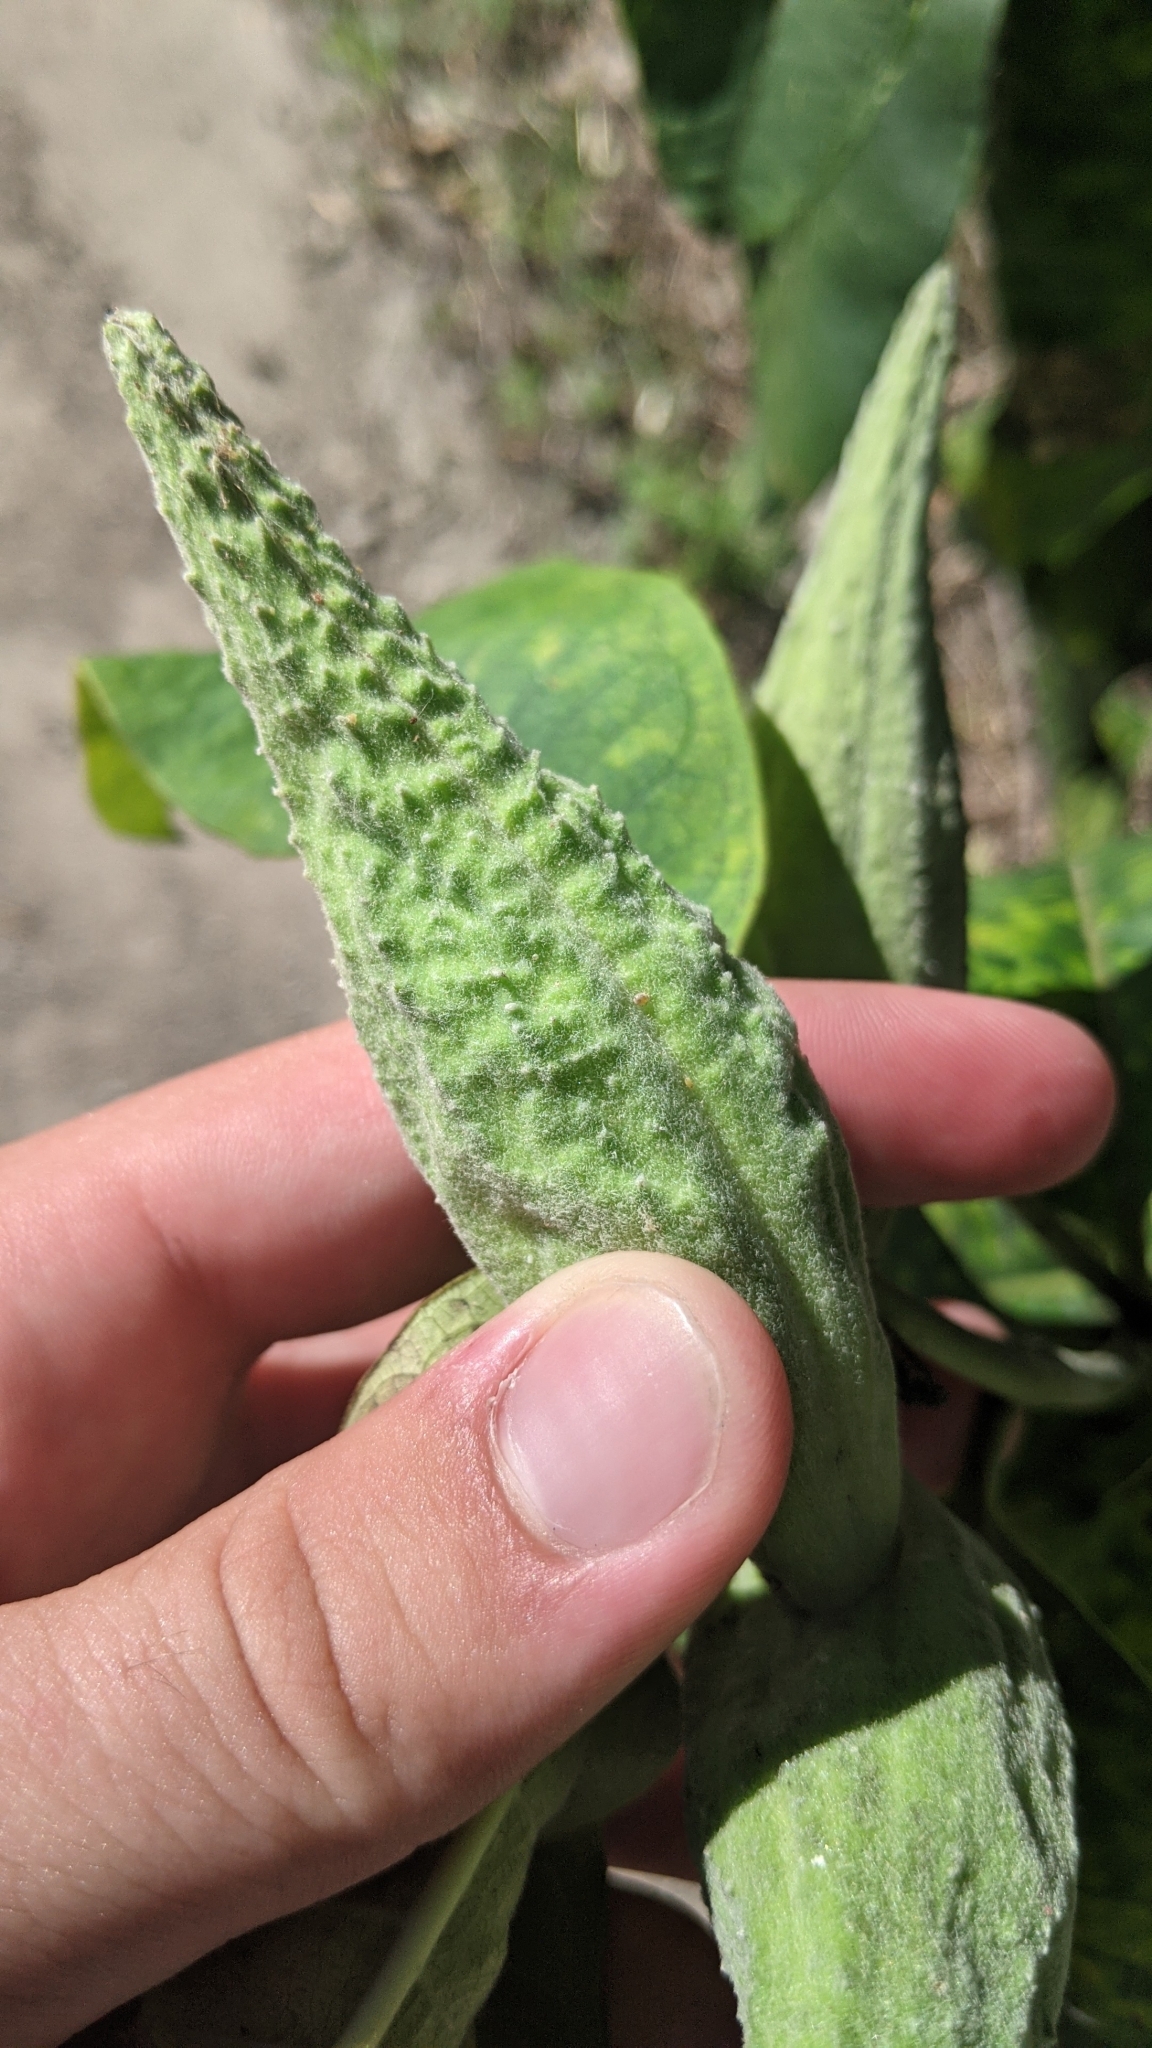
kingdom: Plantae
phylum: Tracheophyta
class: Magnoliopsida
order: Gentianales
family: Apocynaceae
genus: Asclepias
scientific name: Asclepias syriaca
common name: Common milkweed
